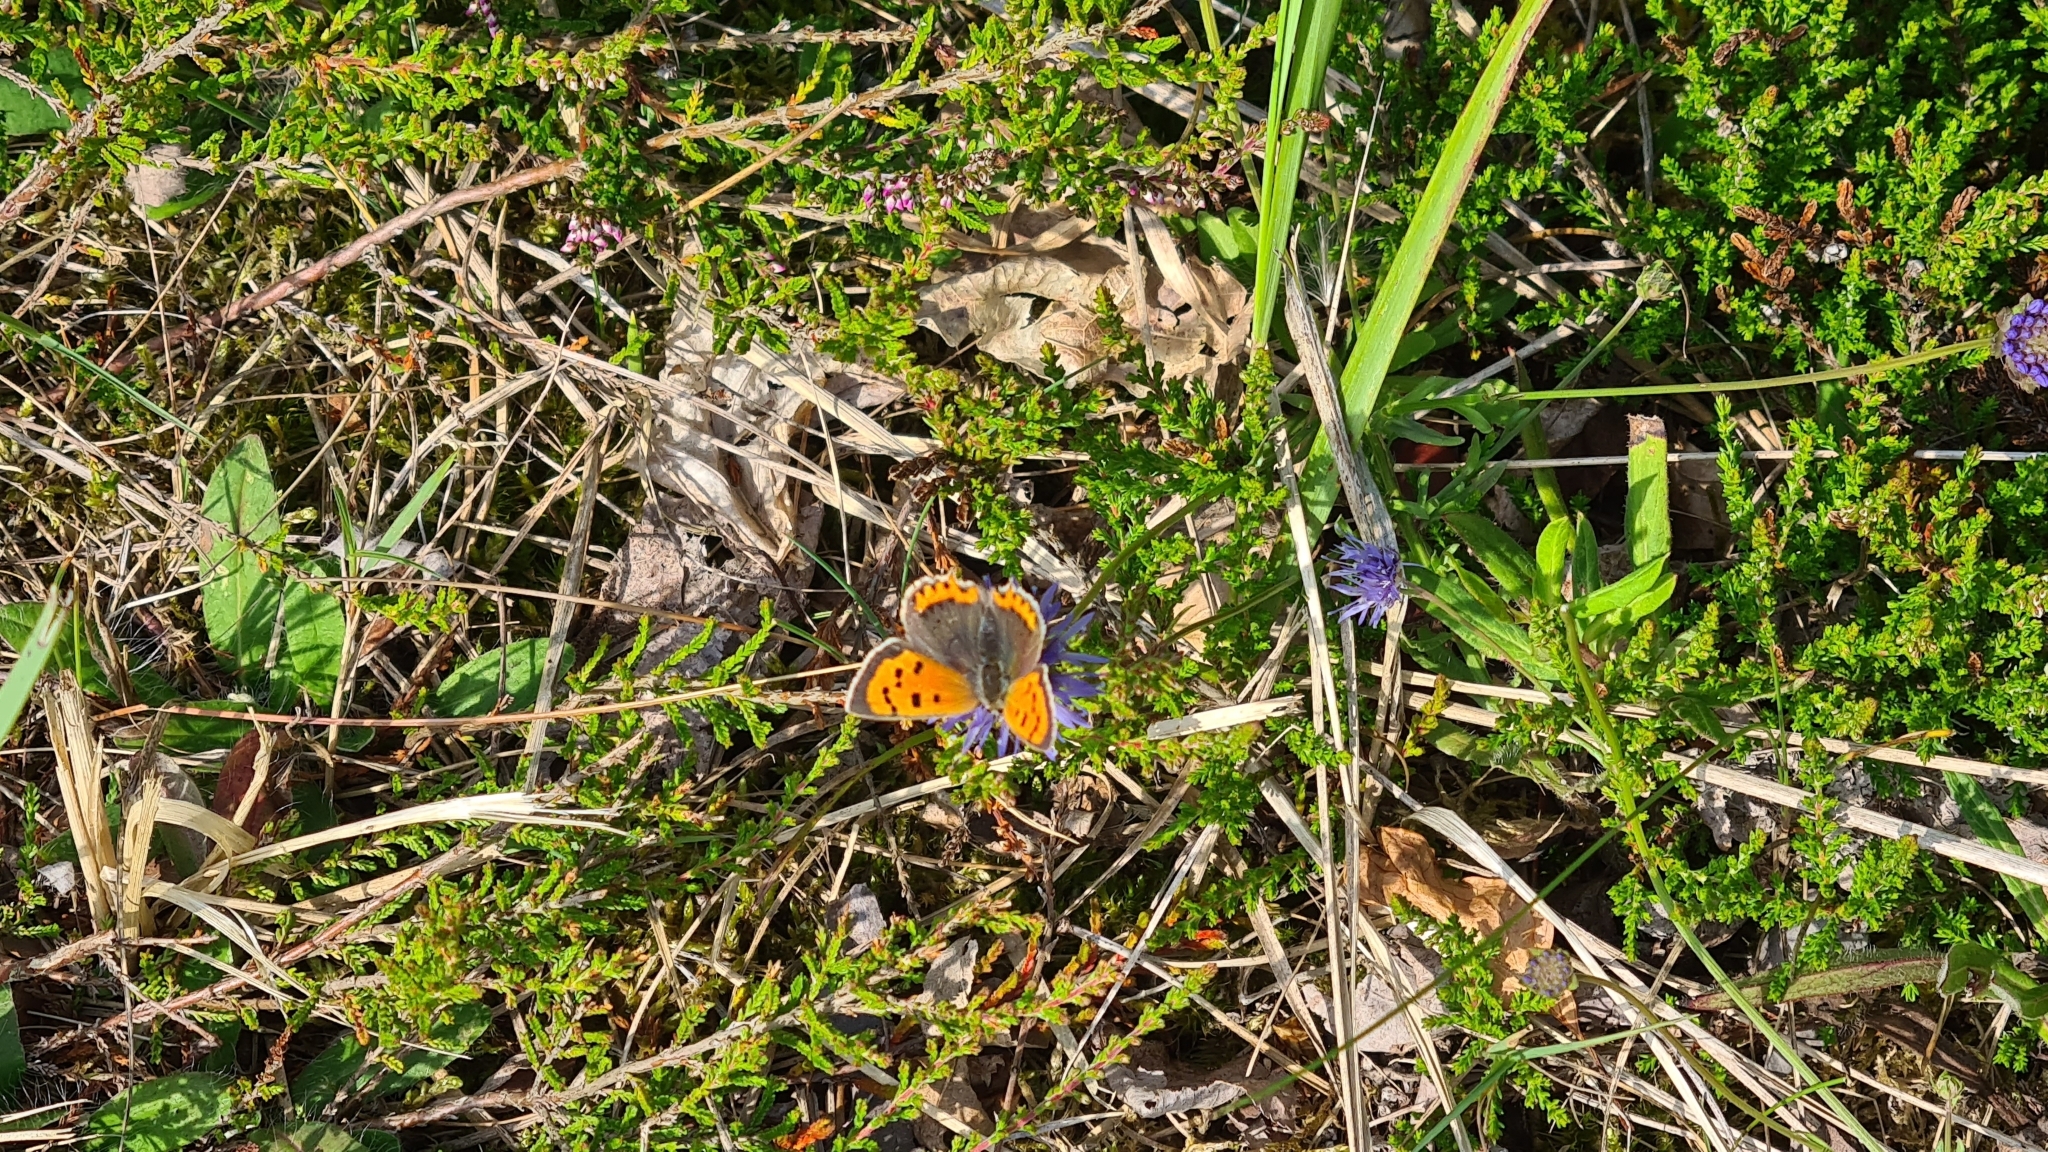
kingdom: Animalia
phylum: Arthropoda
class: Insecta
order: Lepidoptera
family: Lycaenidae
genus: Lycaena
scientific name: Lycaena phlaeas
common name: Small copper
